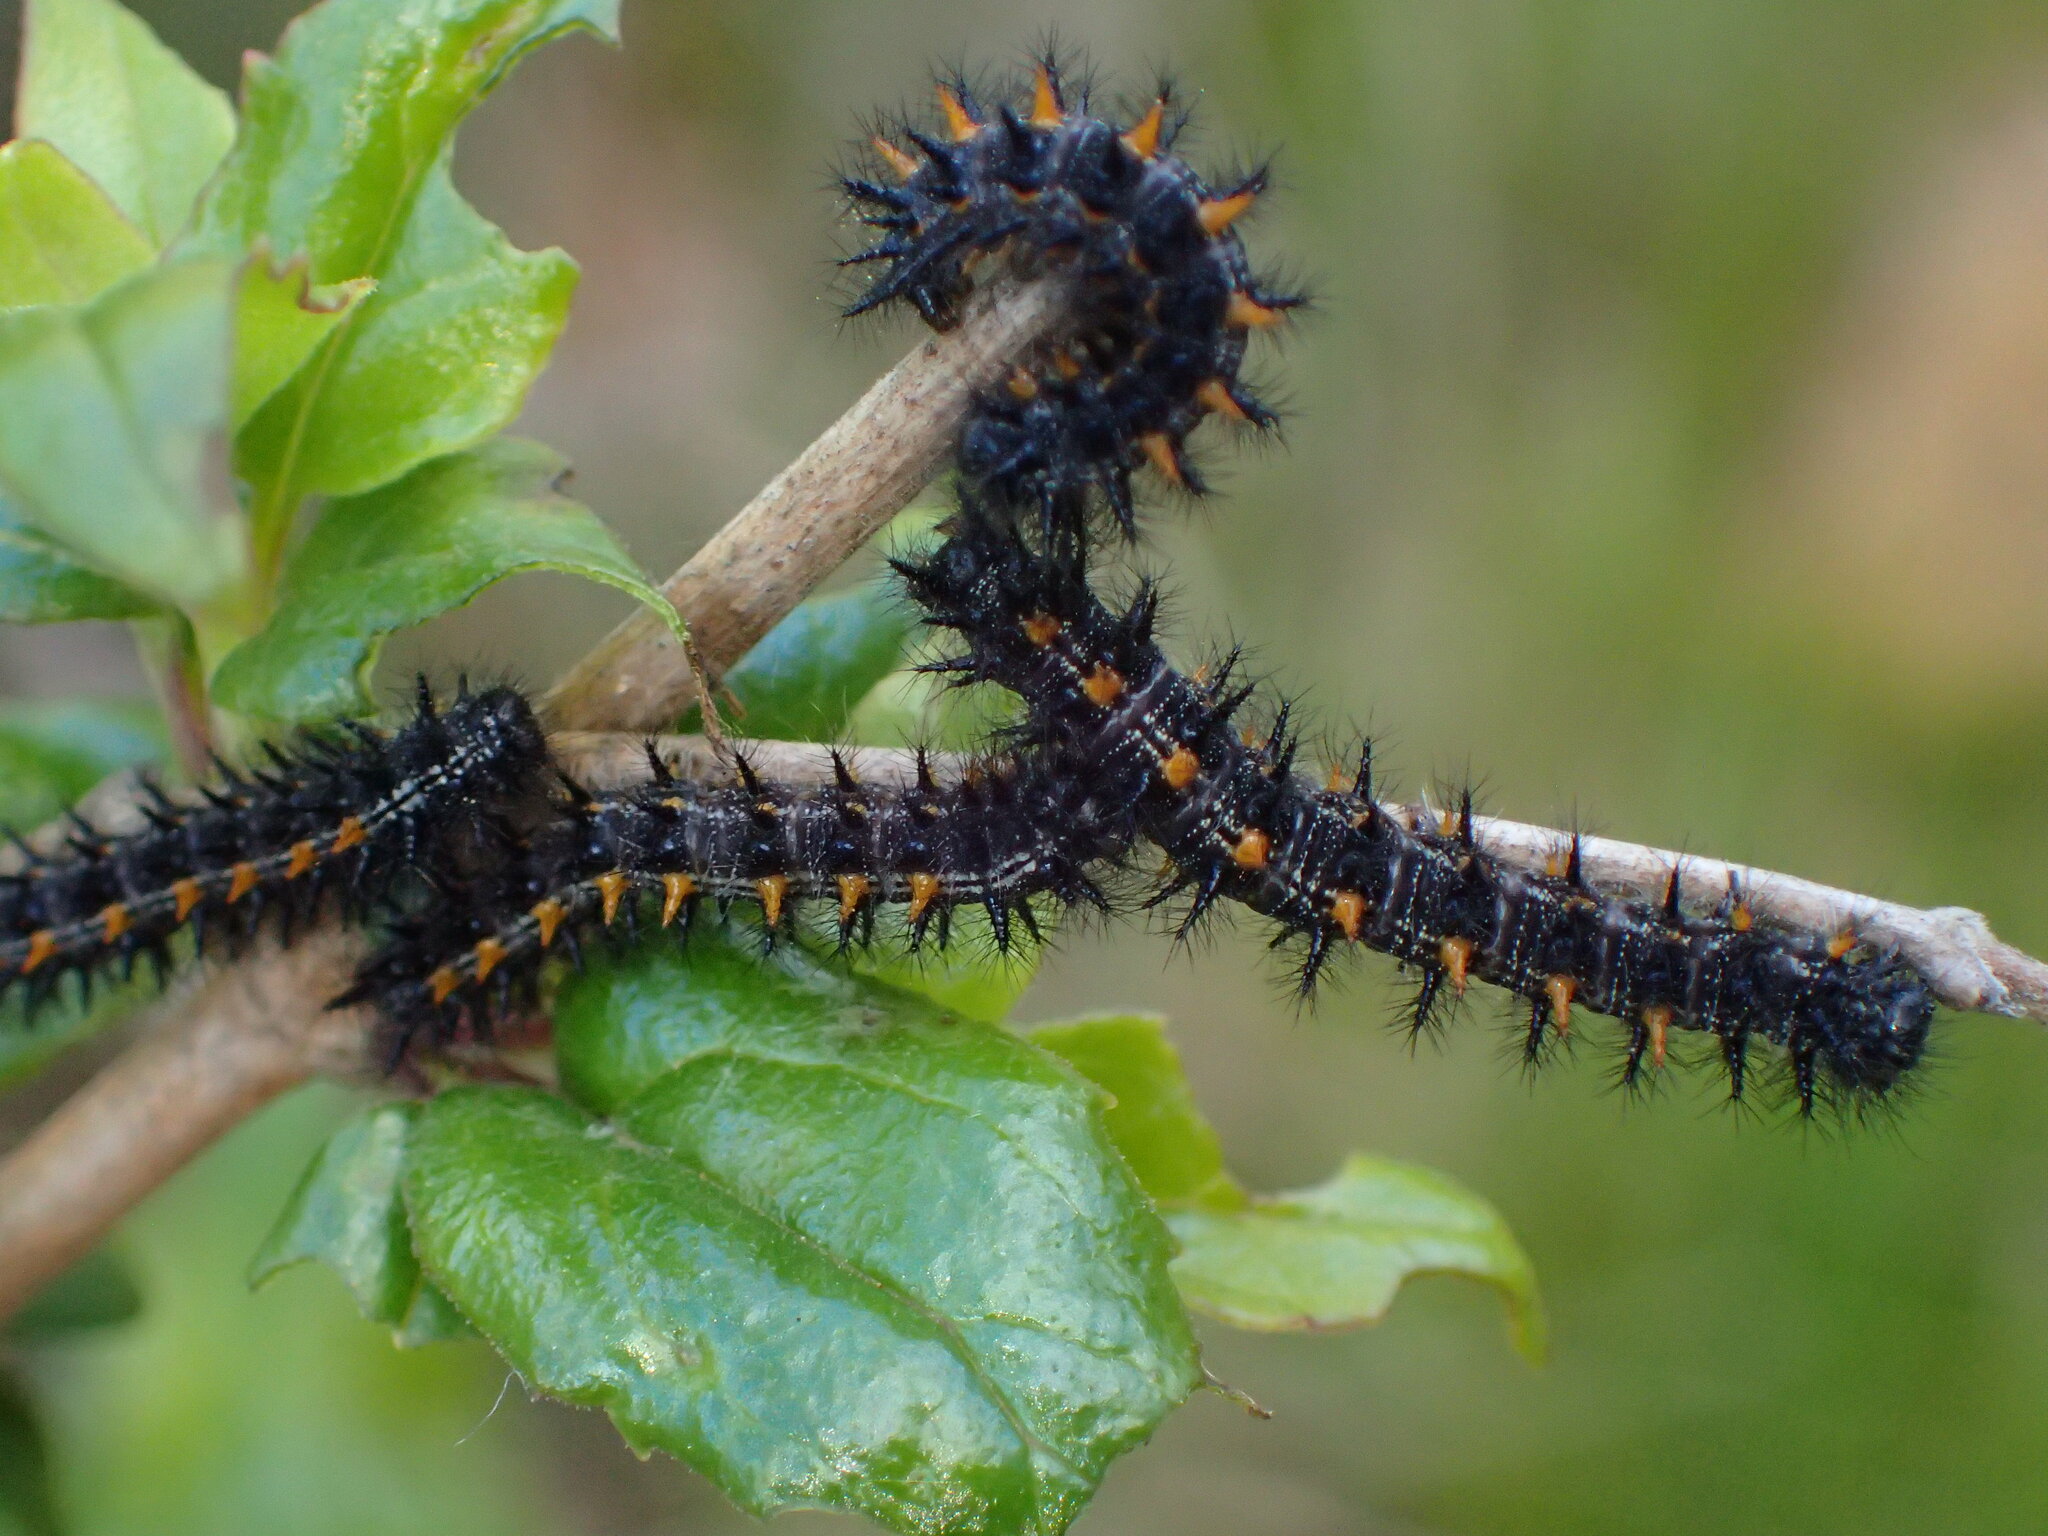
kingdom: Plantae
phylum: Tracheophyta
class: Magnoliopsida
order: Lamiales
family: Plantaginaceae
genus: Keckiella
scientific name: Keckiella cordifolia
